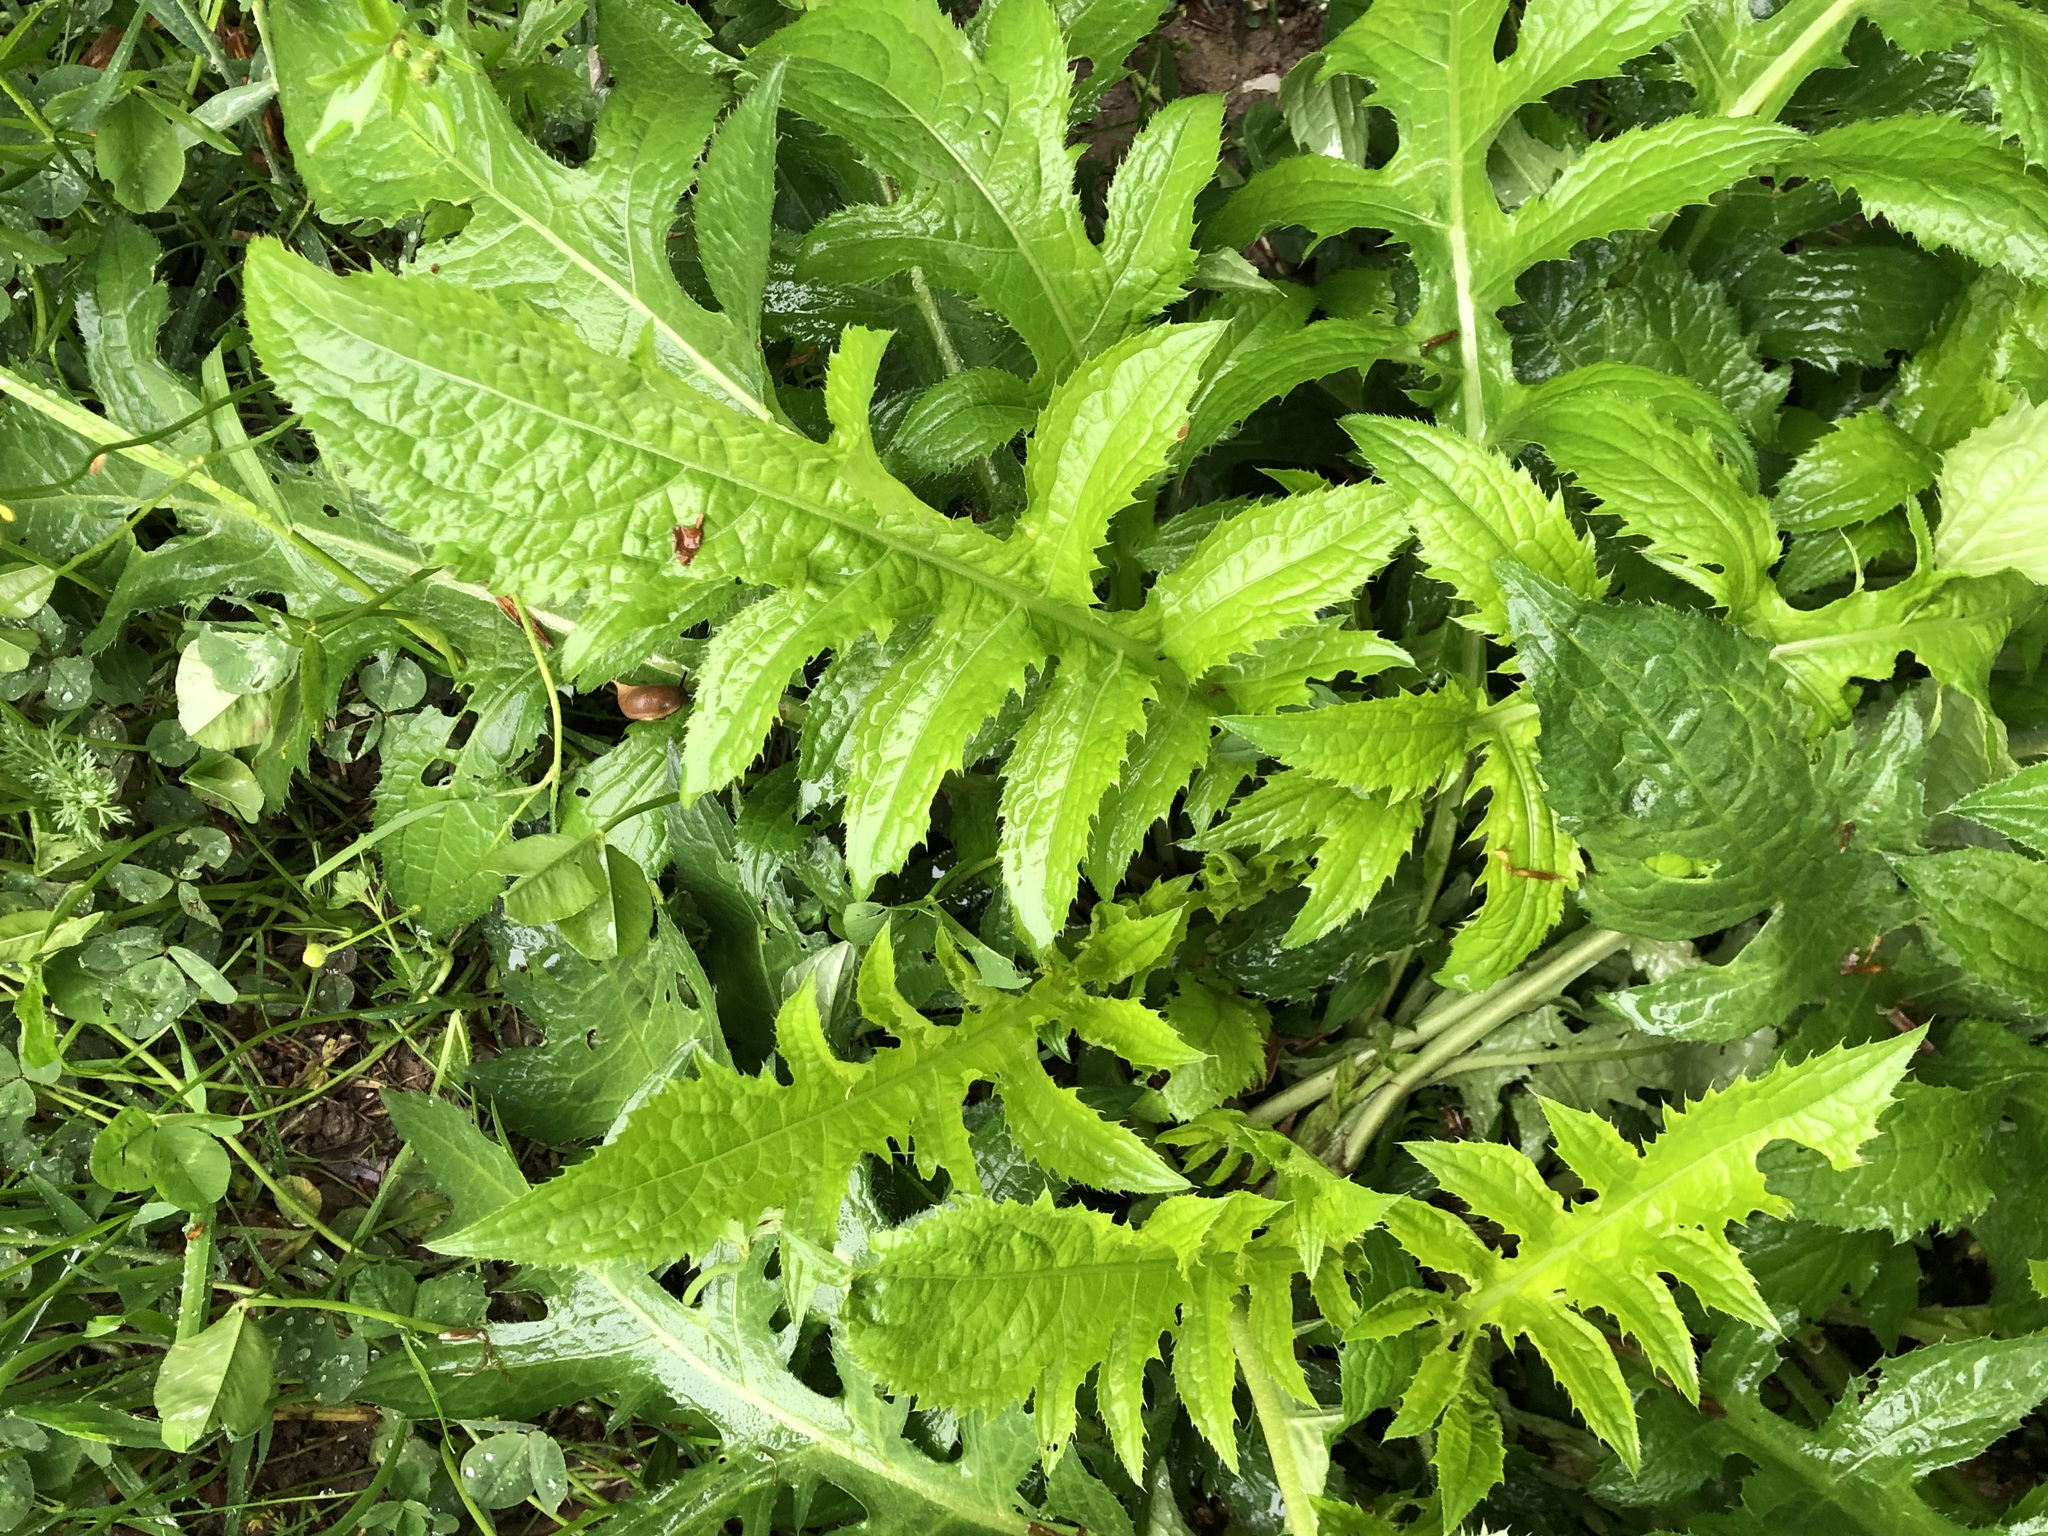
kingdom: Plantae
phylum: Tracheophyta
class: Magnoliopsida
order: Asterales
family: Asteraceae
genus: Cirsium
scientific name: Cirsium oleraceum
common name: Cabbage thistle
